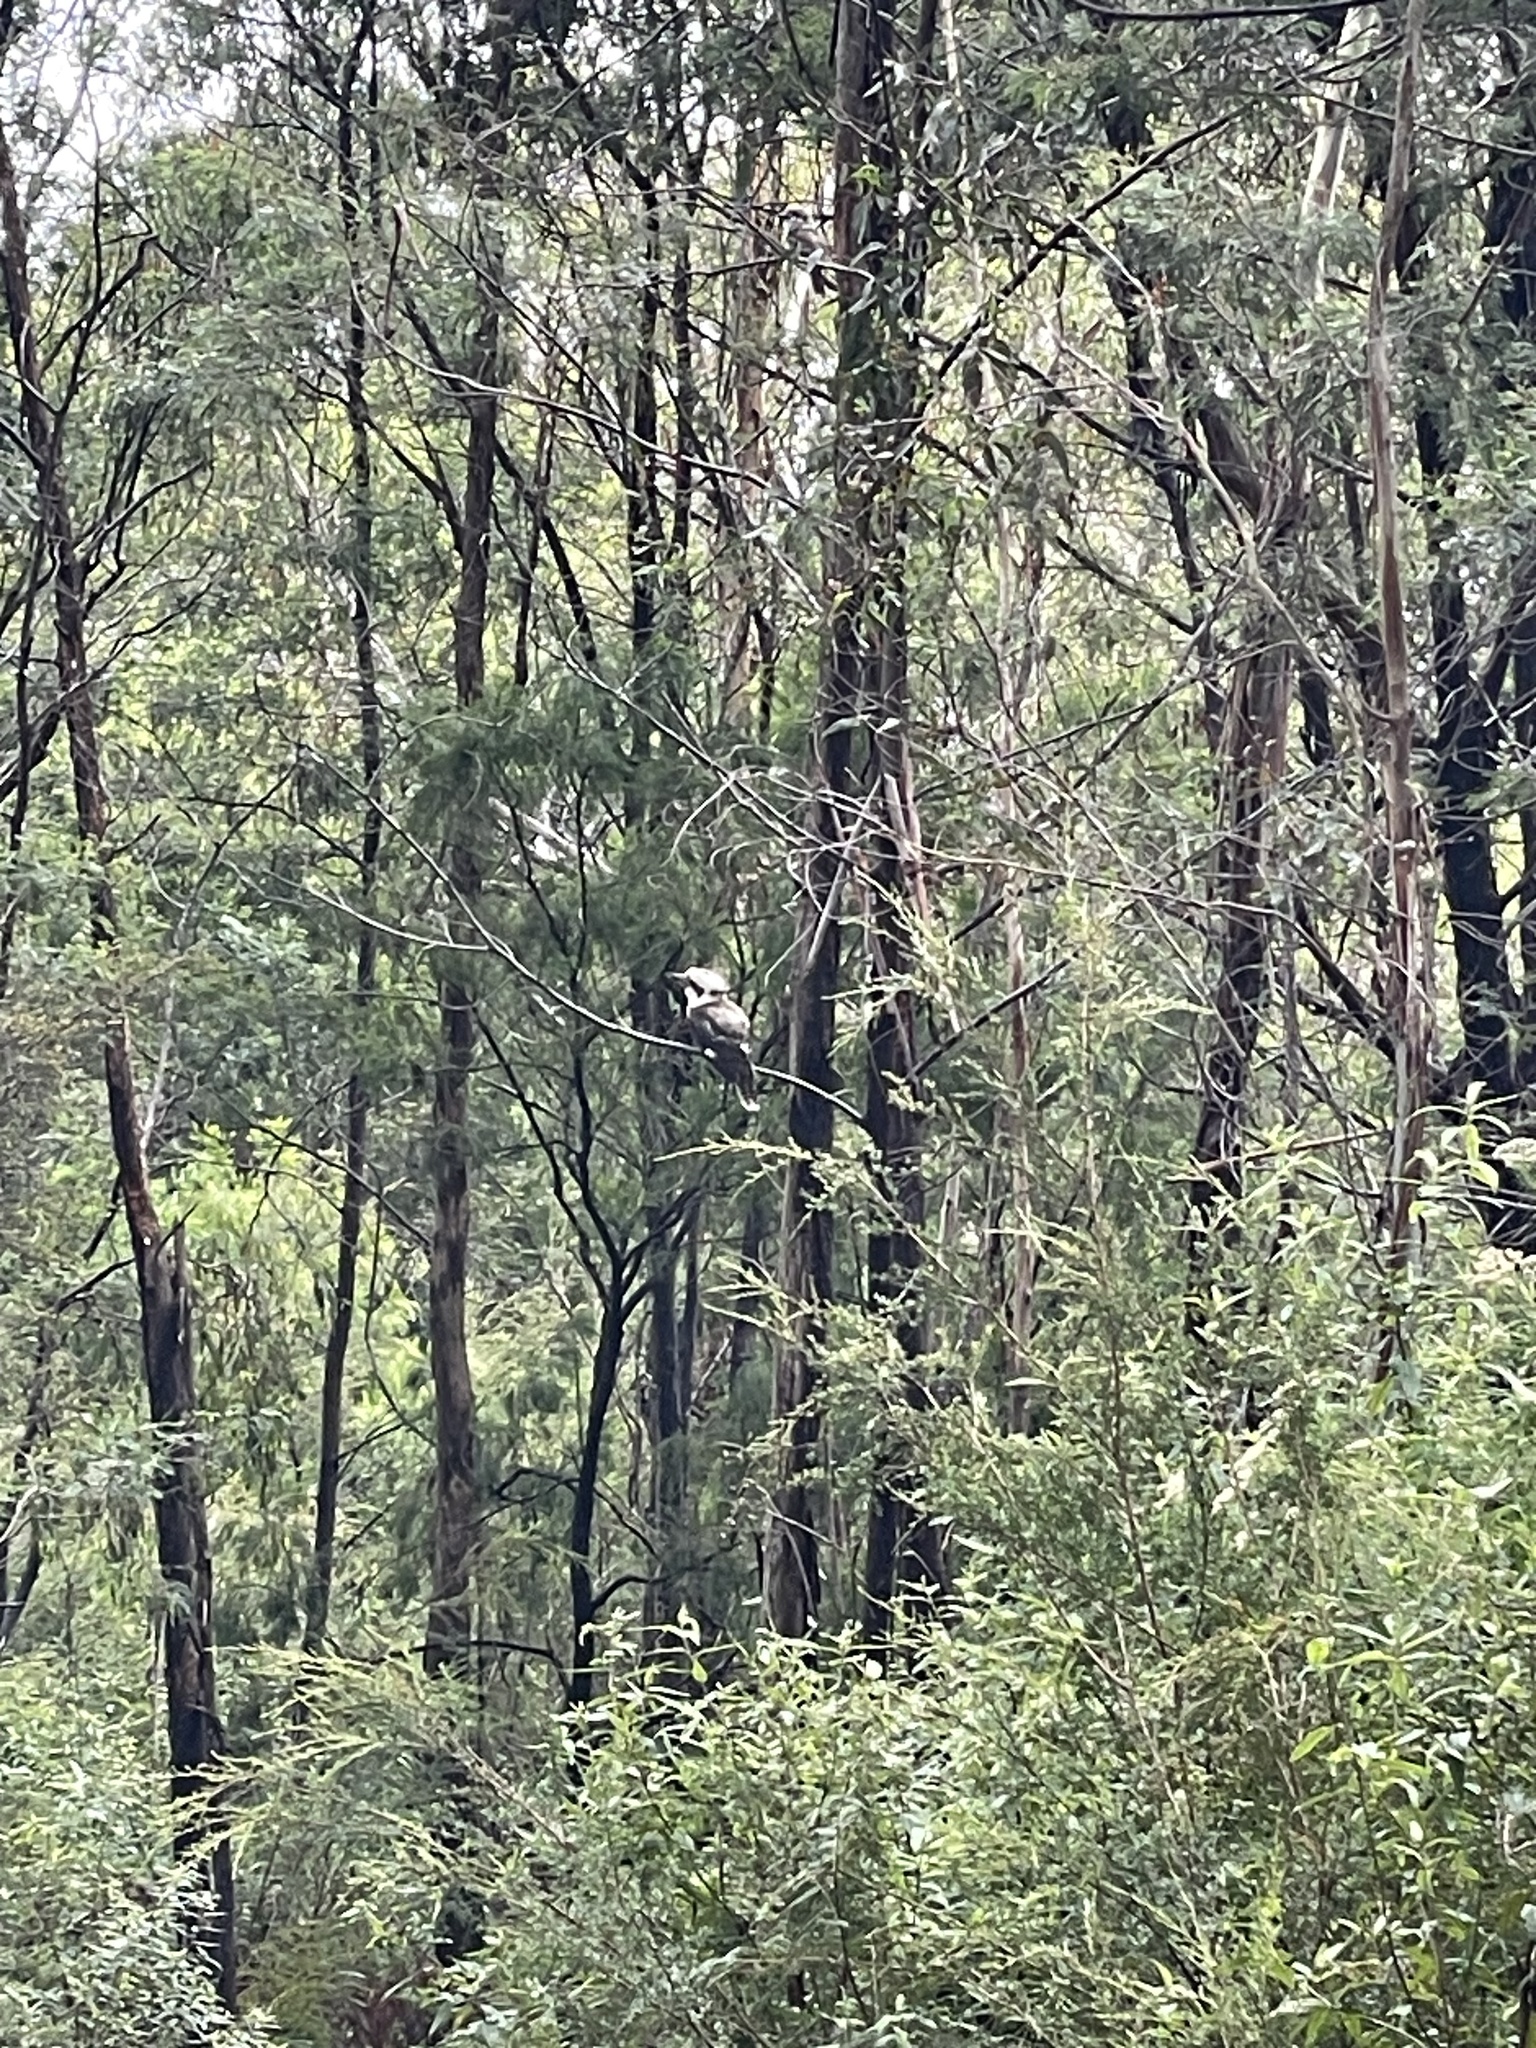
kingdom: Animalia
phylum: Chordata
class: Aves
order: Coraciiformes
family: Alcedinidae
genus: Dacelo
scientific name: Dacelo novaeguineae
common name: Laughing kookaburra
